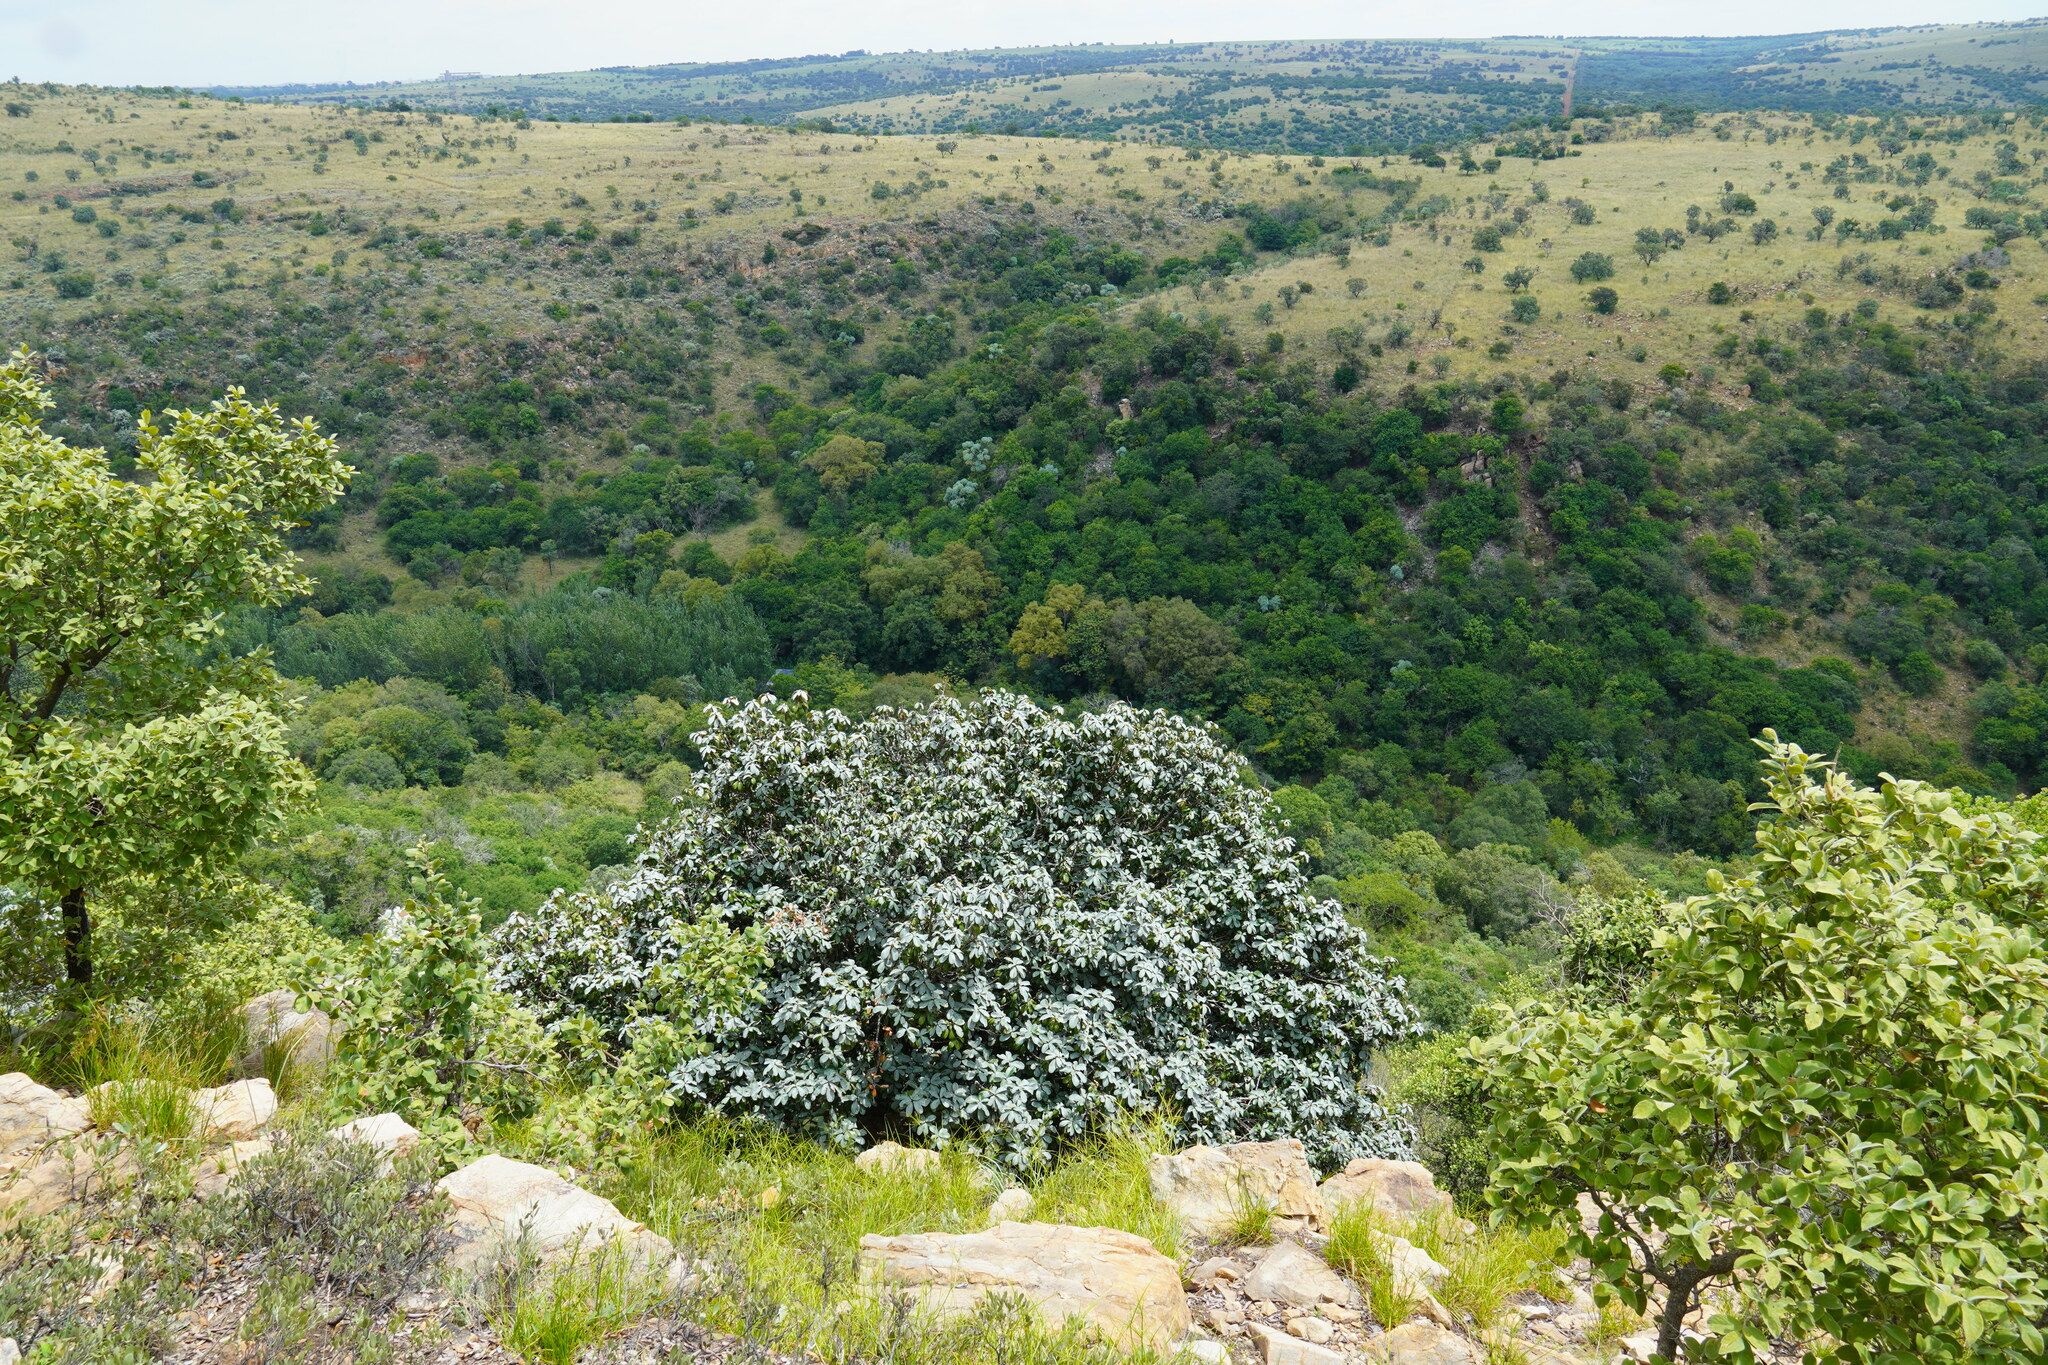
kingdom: Plantae
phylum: Tracheophyta
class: Magnoliopsida
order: Ericales
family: Sapotaceae
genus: Englerophytum
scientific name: Englerophytum magalismontanum
